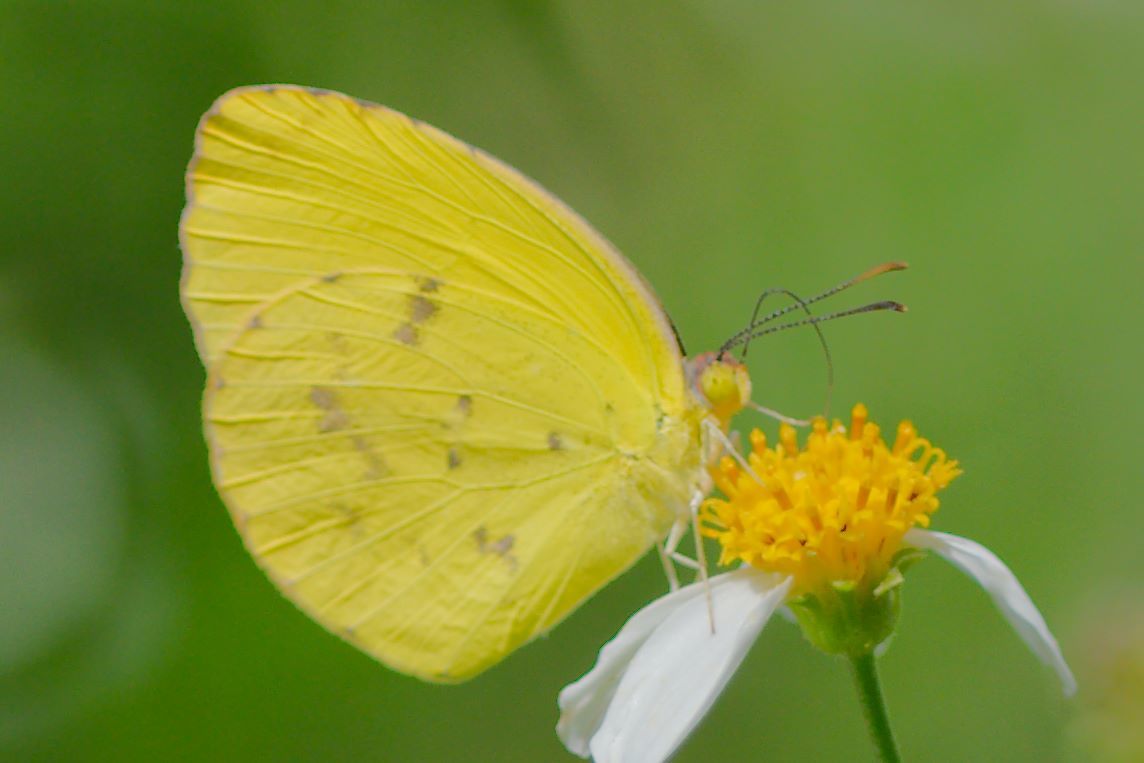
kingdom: Animalia
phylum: Arthropoda
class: Insecta
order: Lepidoptera
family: Pieridae
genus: Pyrisitia
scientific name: Pyrisitia dina
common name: Dina yellow
